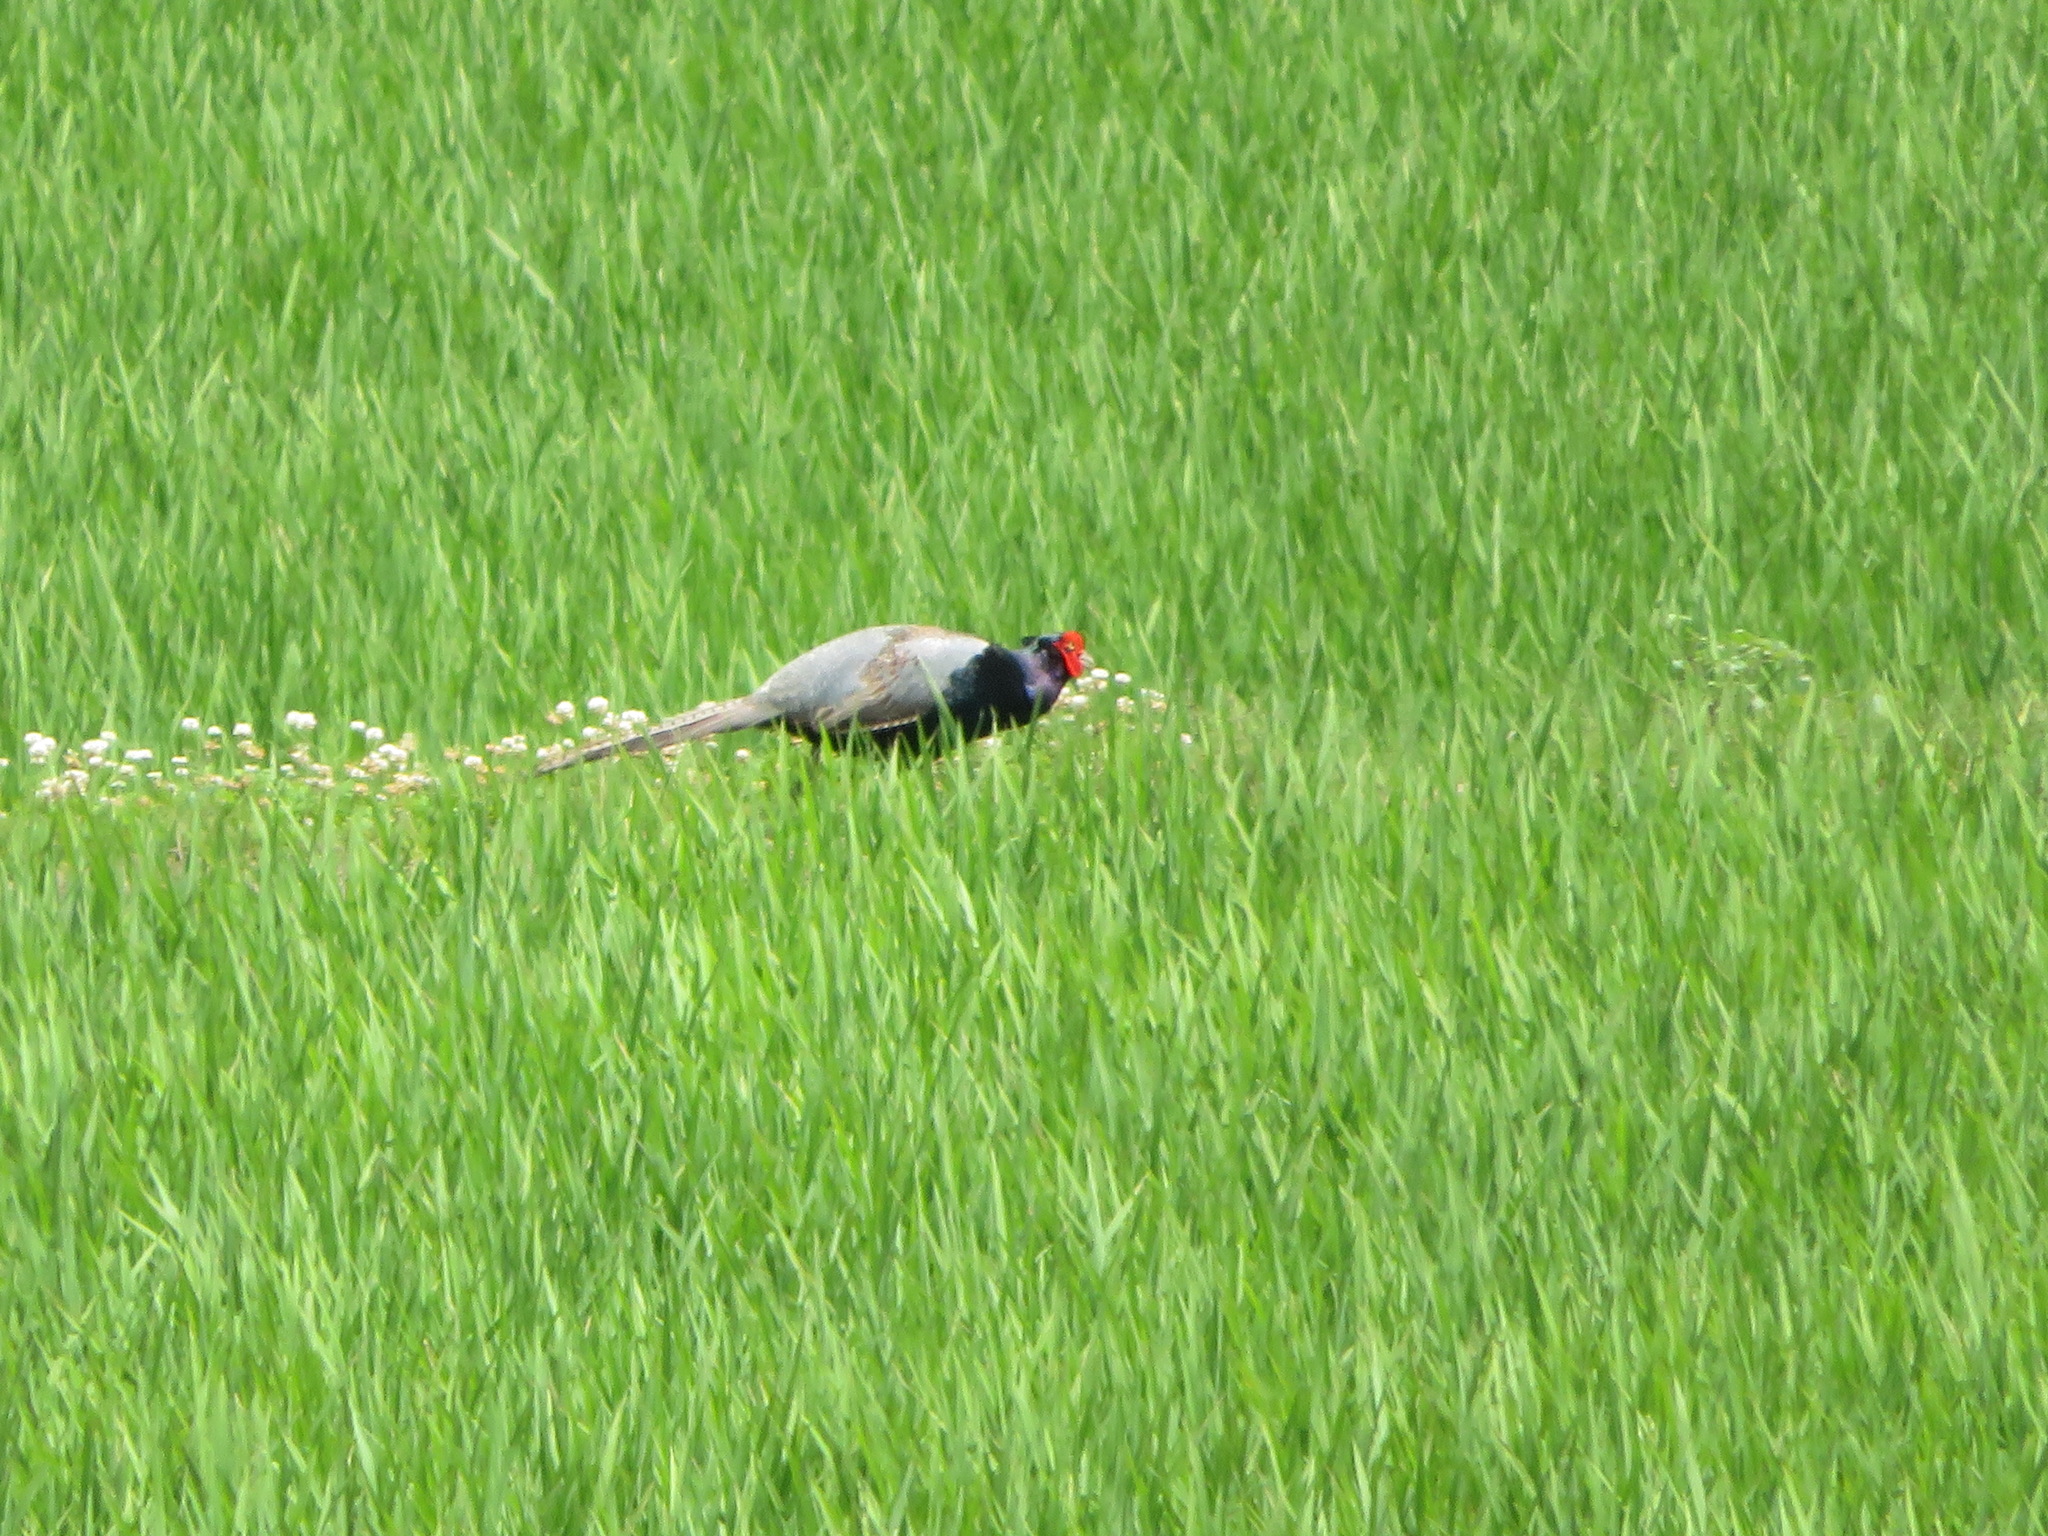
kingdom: Animalia
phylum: Chordata
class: Aves
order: Galliformes
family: Phasianidae
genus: Phasianus
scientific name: Phasianus versicolor
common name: Green pheasant
